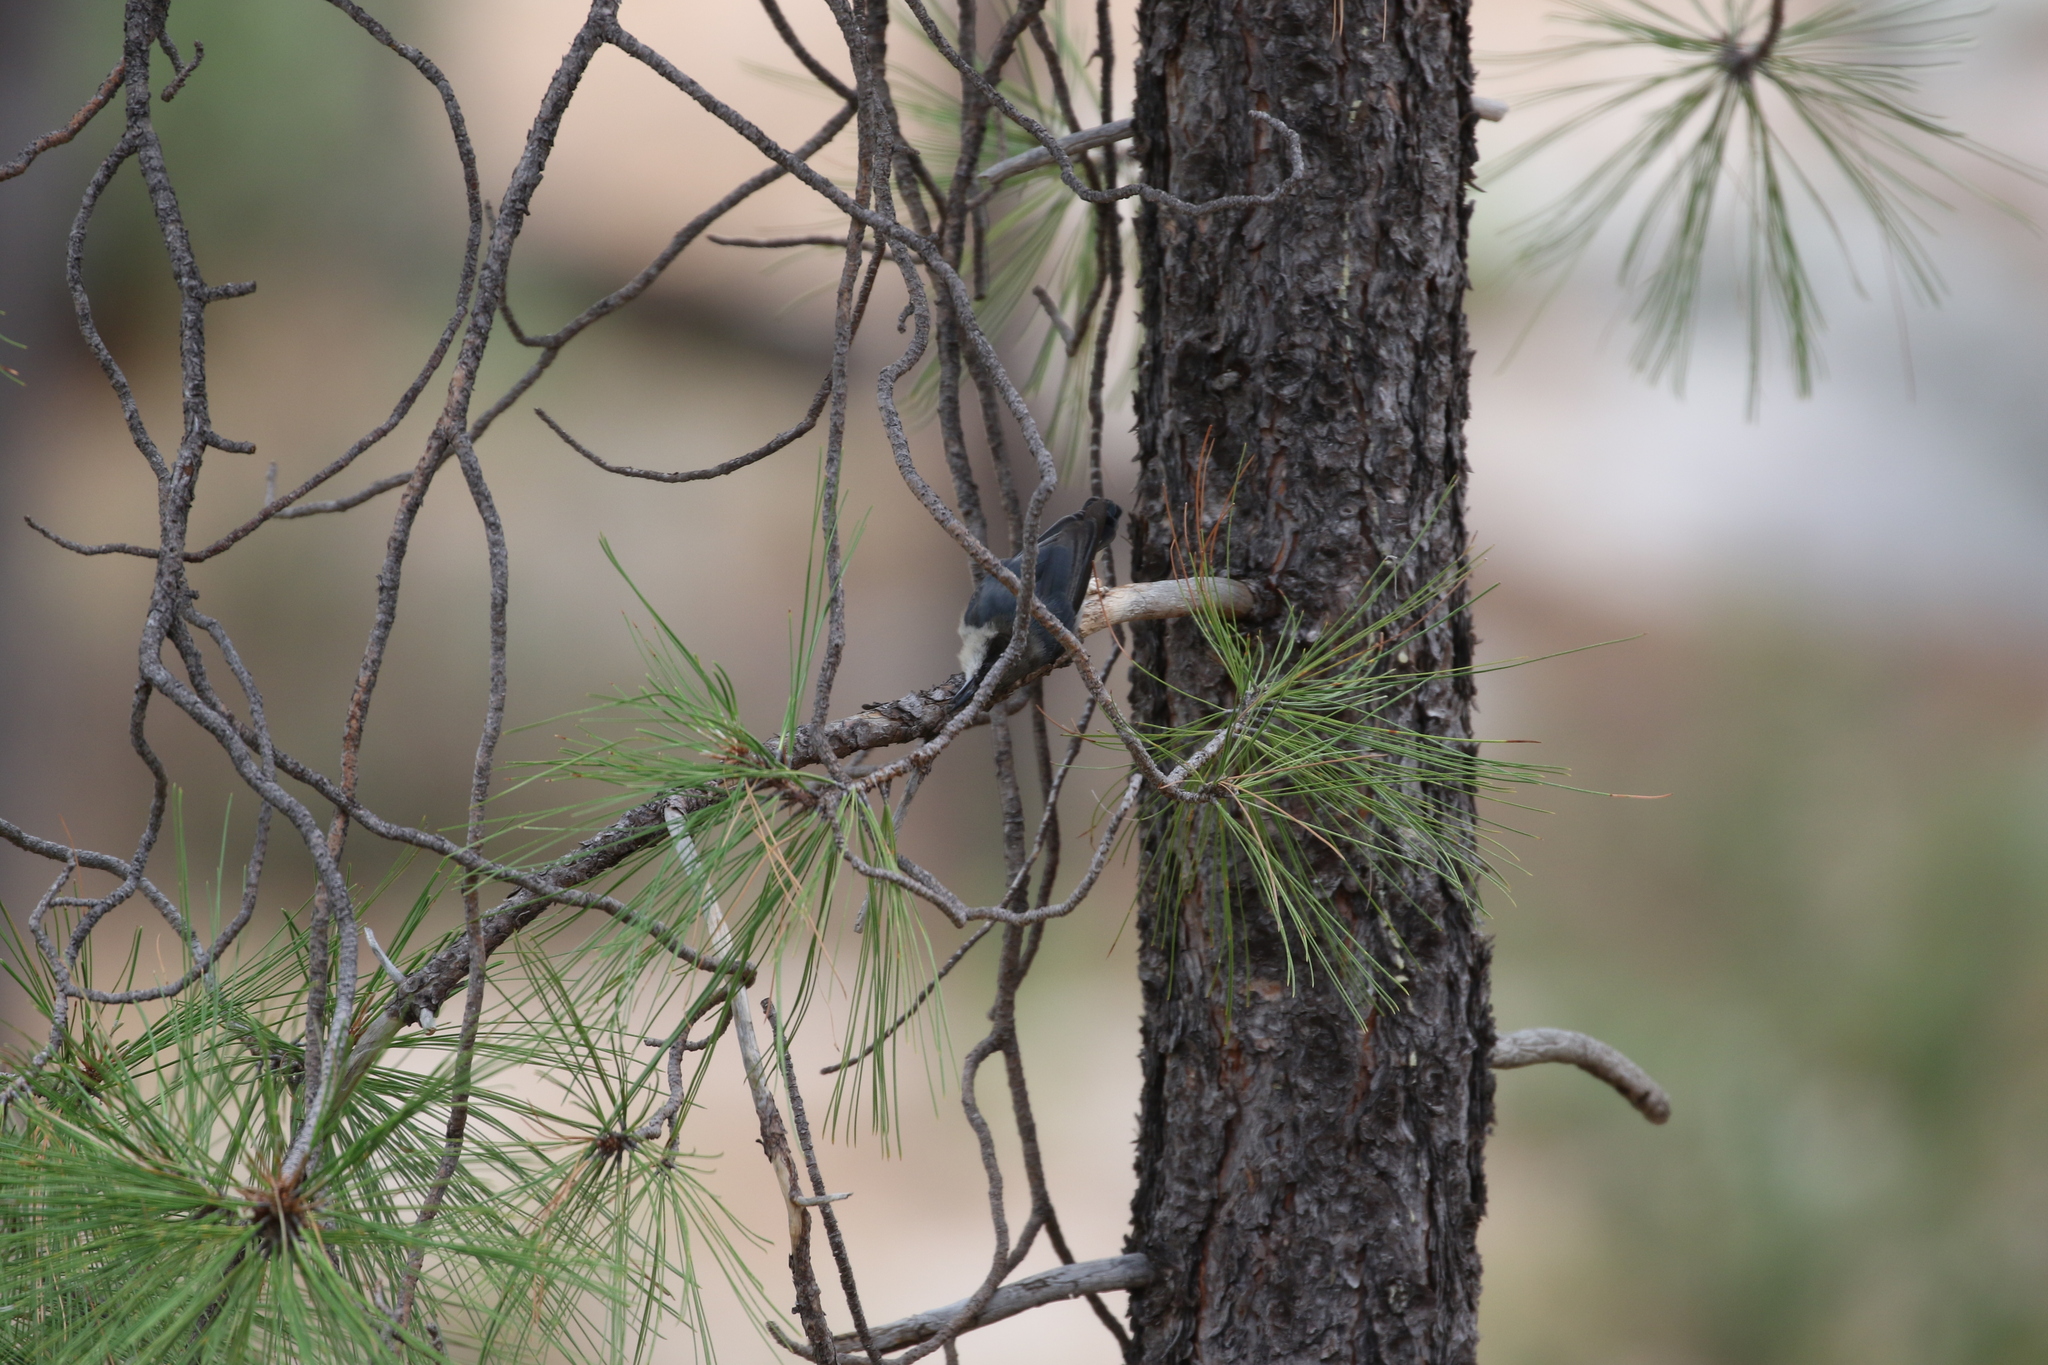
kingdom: Animalia
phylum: Chordata
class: Aves
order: Passeriformes
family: Sittidae
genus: Sitta
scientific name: Sitta pygmaea
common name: Pygmy nuthatch
